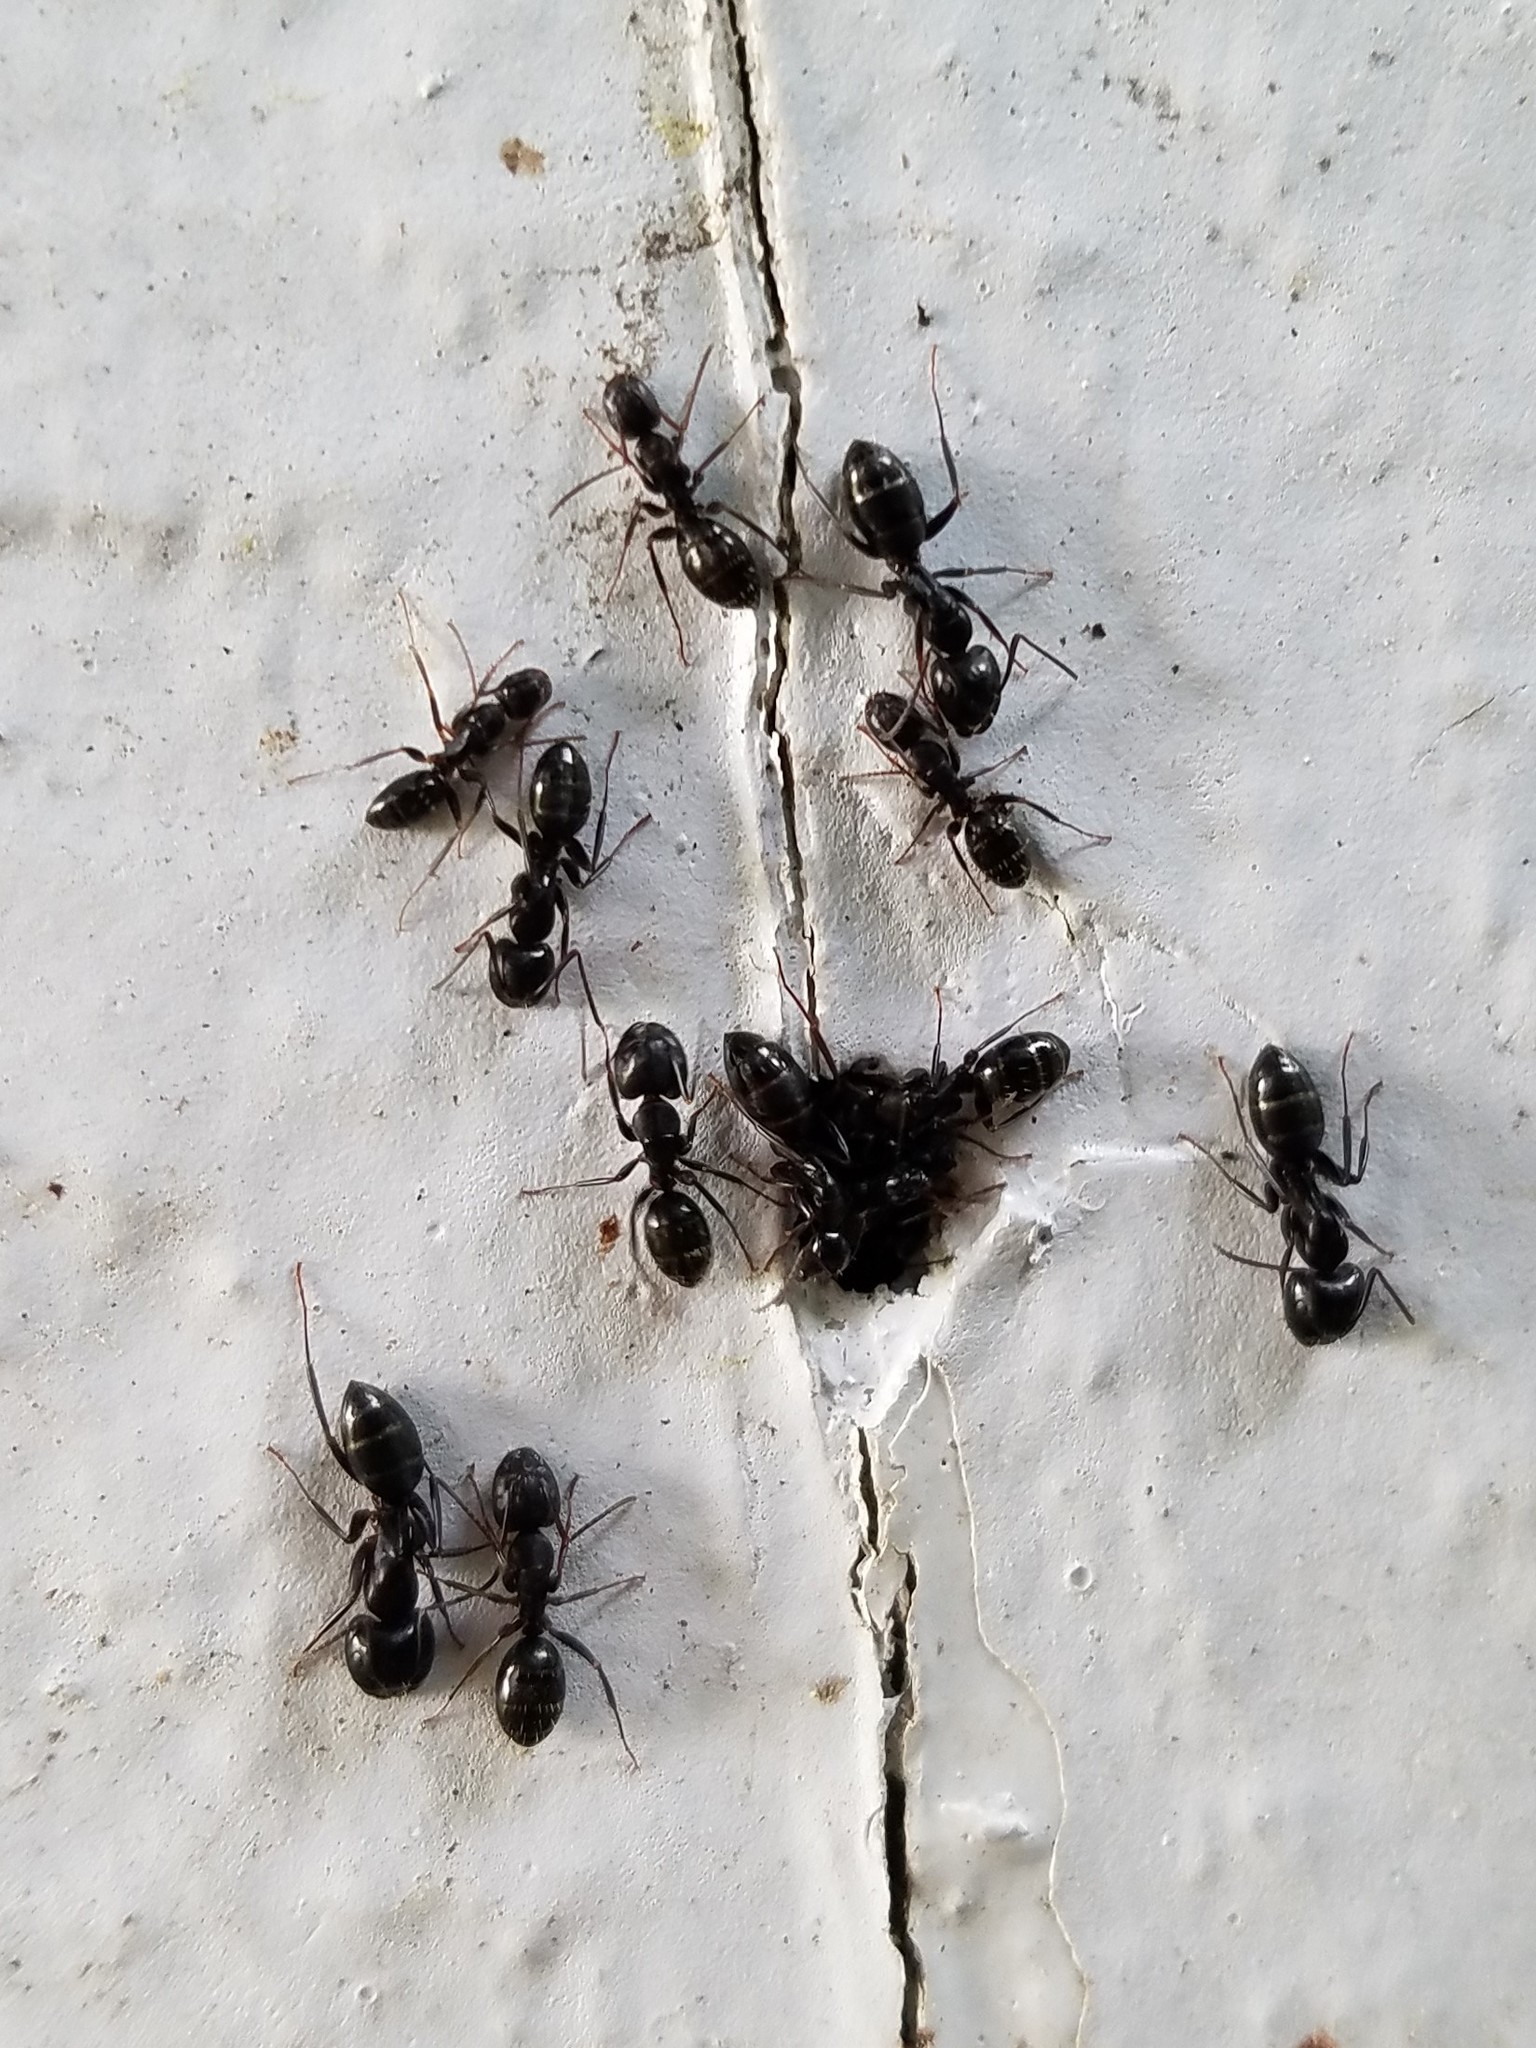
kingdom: Animalia
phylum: Arthropoda
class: Insecta
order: Hymenoptera
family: Formicidae
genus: Camponotus
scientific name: Camponotus nearcticus
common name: Smaller carpenter ant
